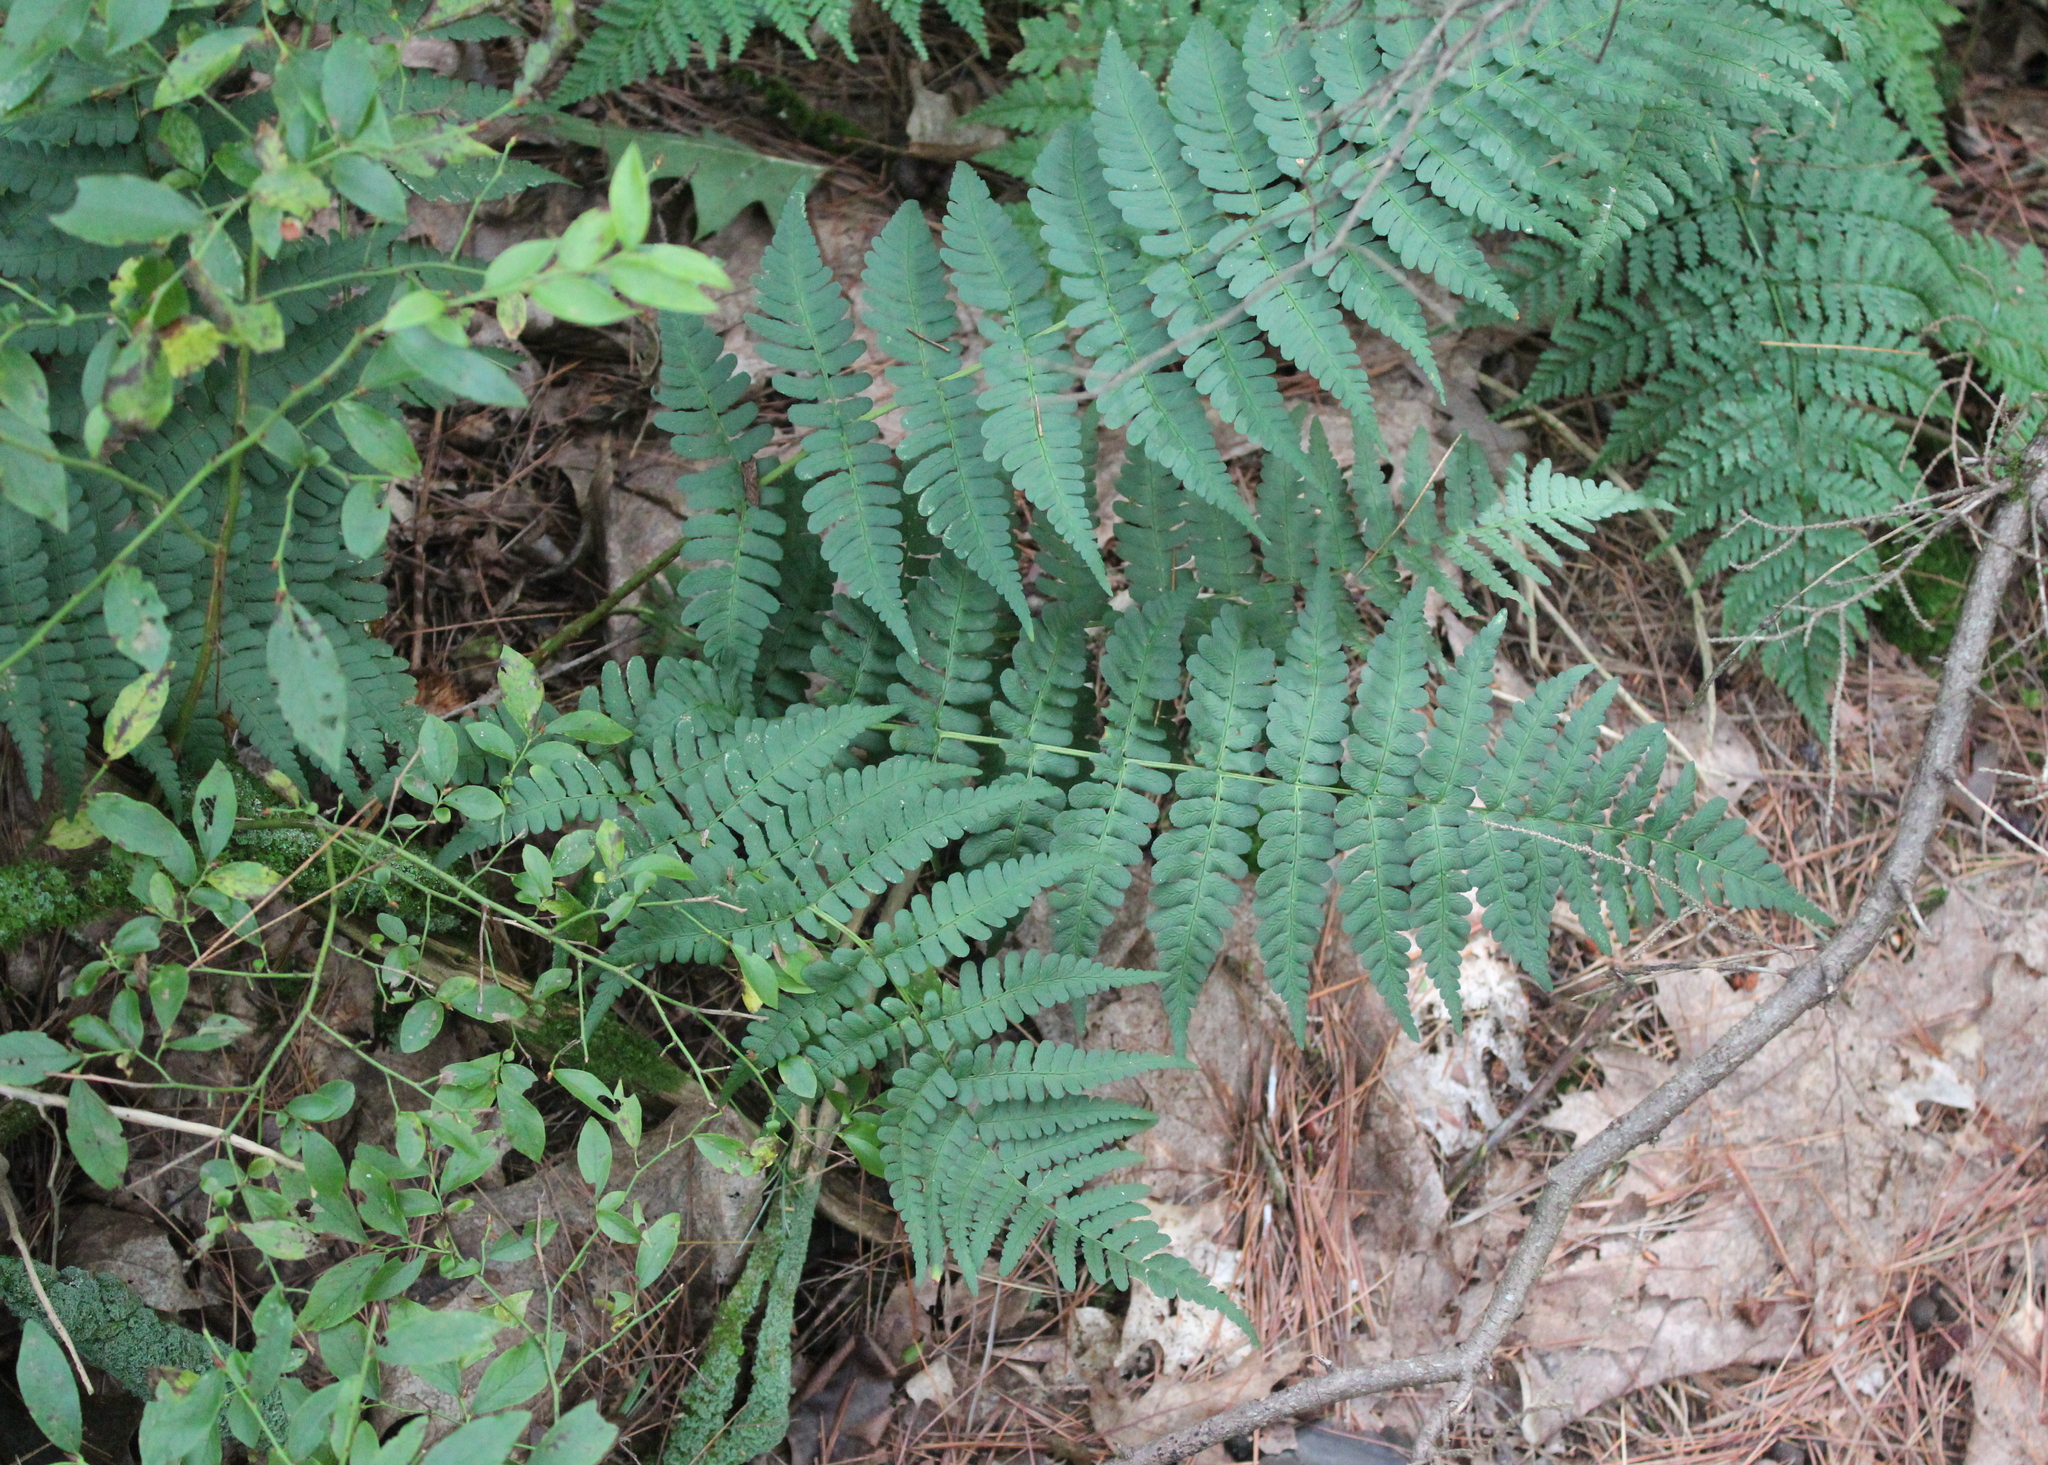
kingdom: Plantae
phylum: Tracheophyta
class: Polypodiopsida
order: Polypodiales
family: Dryopteridaceae
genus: Dryopteris
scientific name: Dryopteris marginalis
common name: Marginal wood fern
